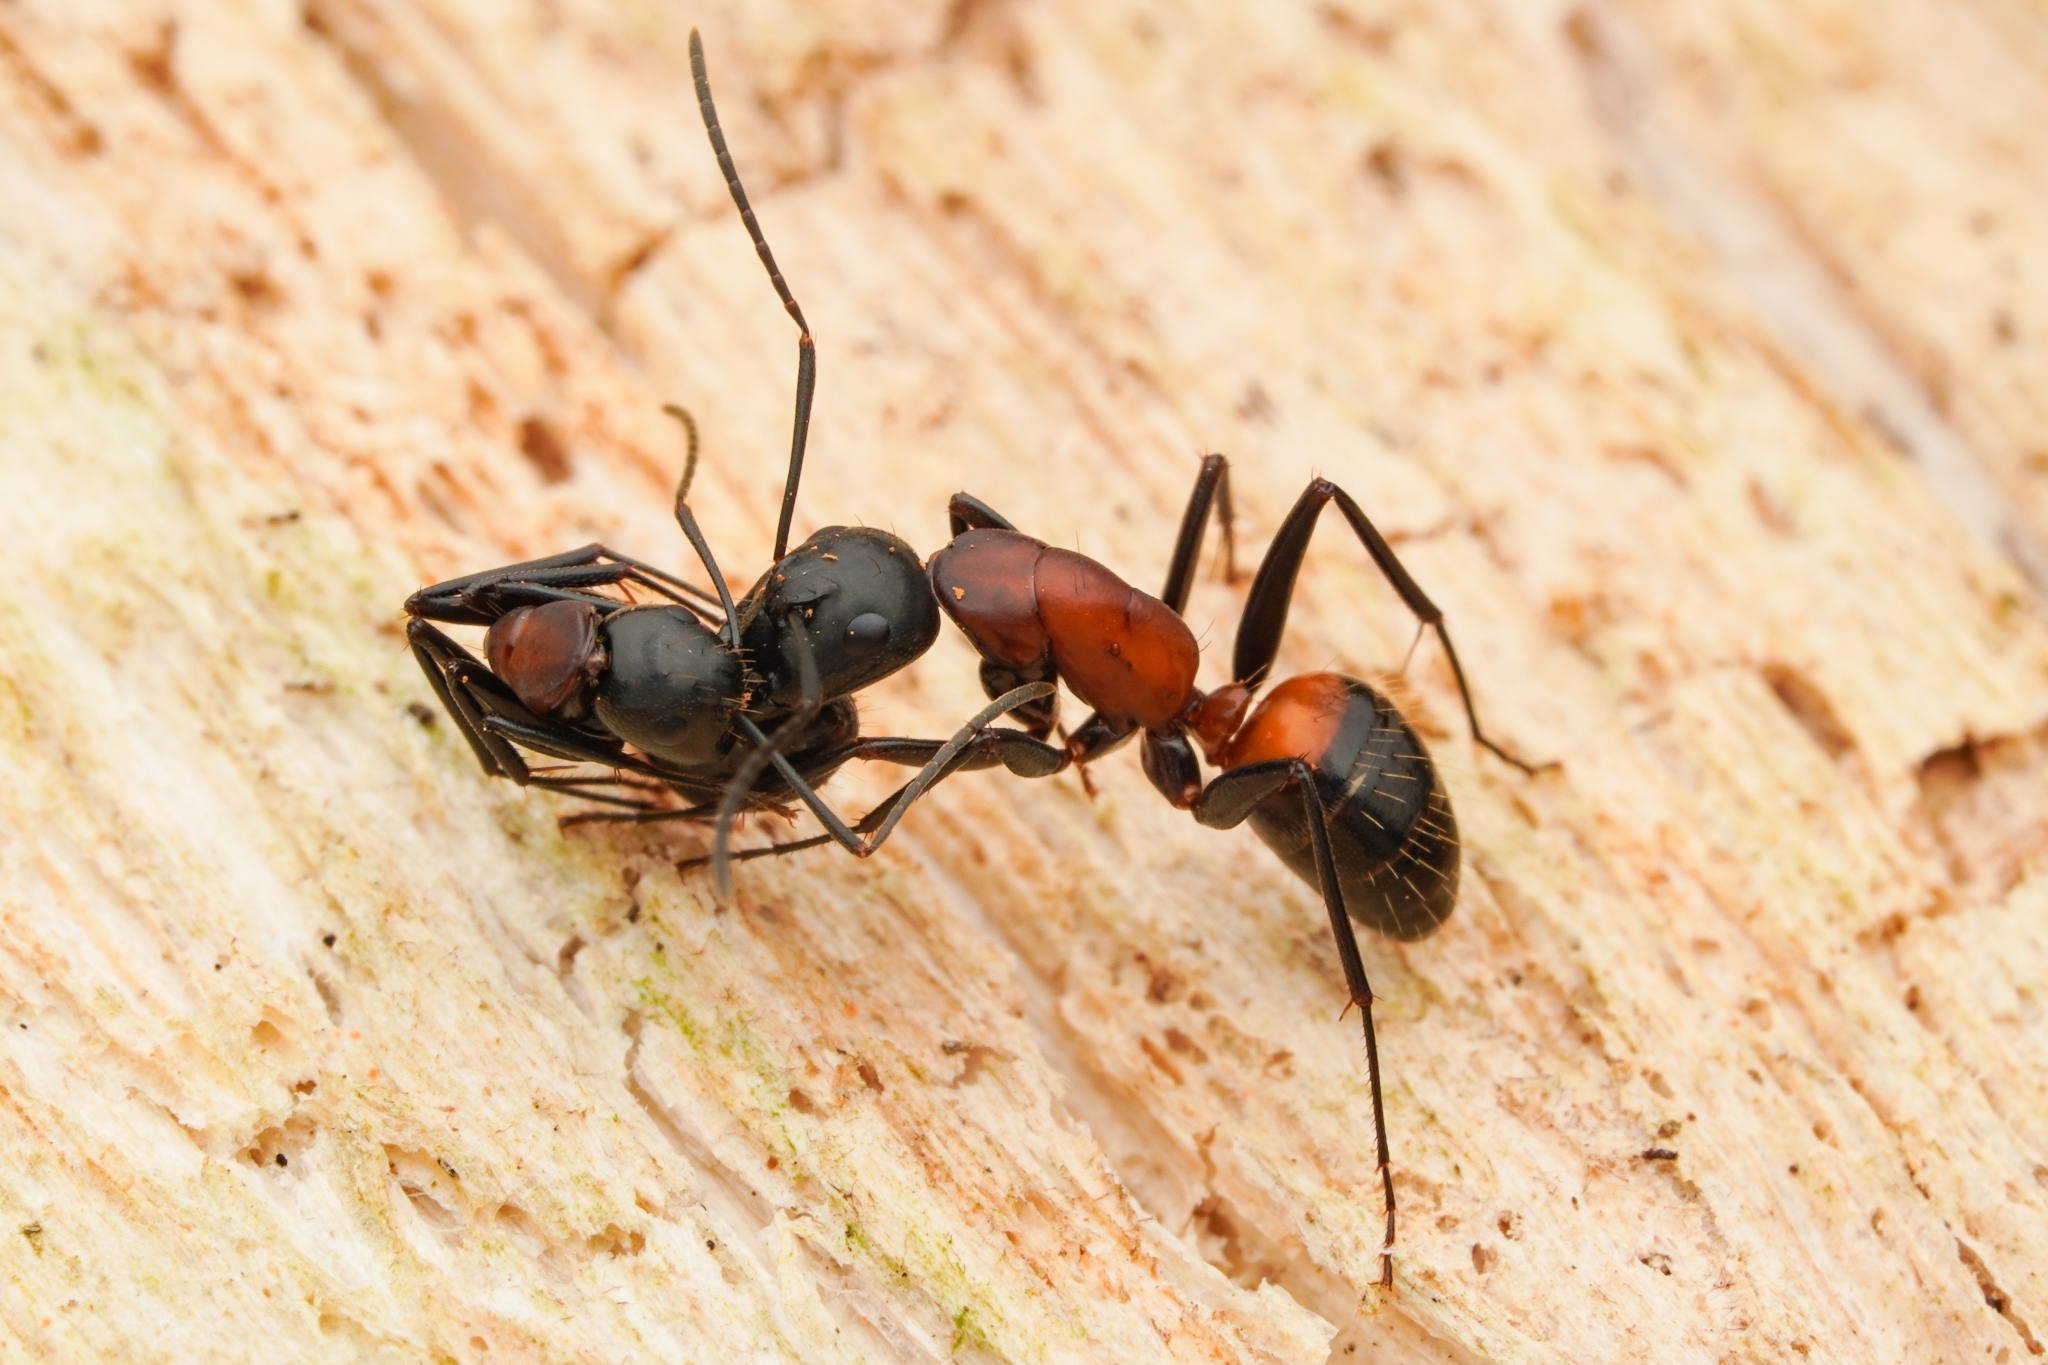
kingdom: Animalia
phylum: Arthropoda
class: Insecta
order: Hymenoptera
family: Formicidae
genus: Camponotus
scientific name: Camponotus obscuripes
